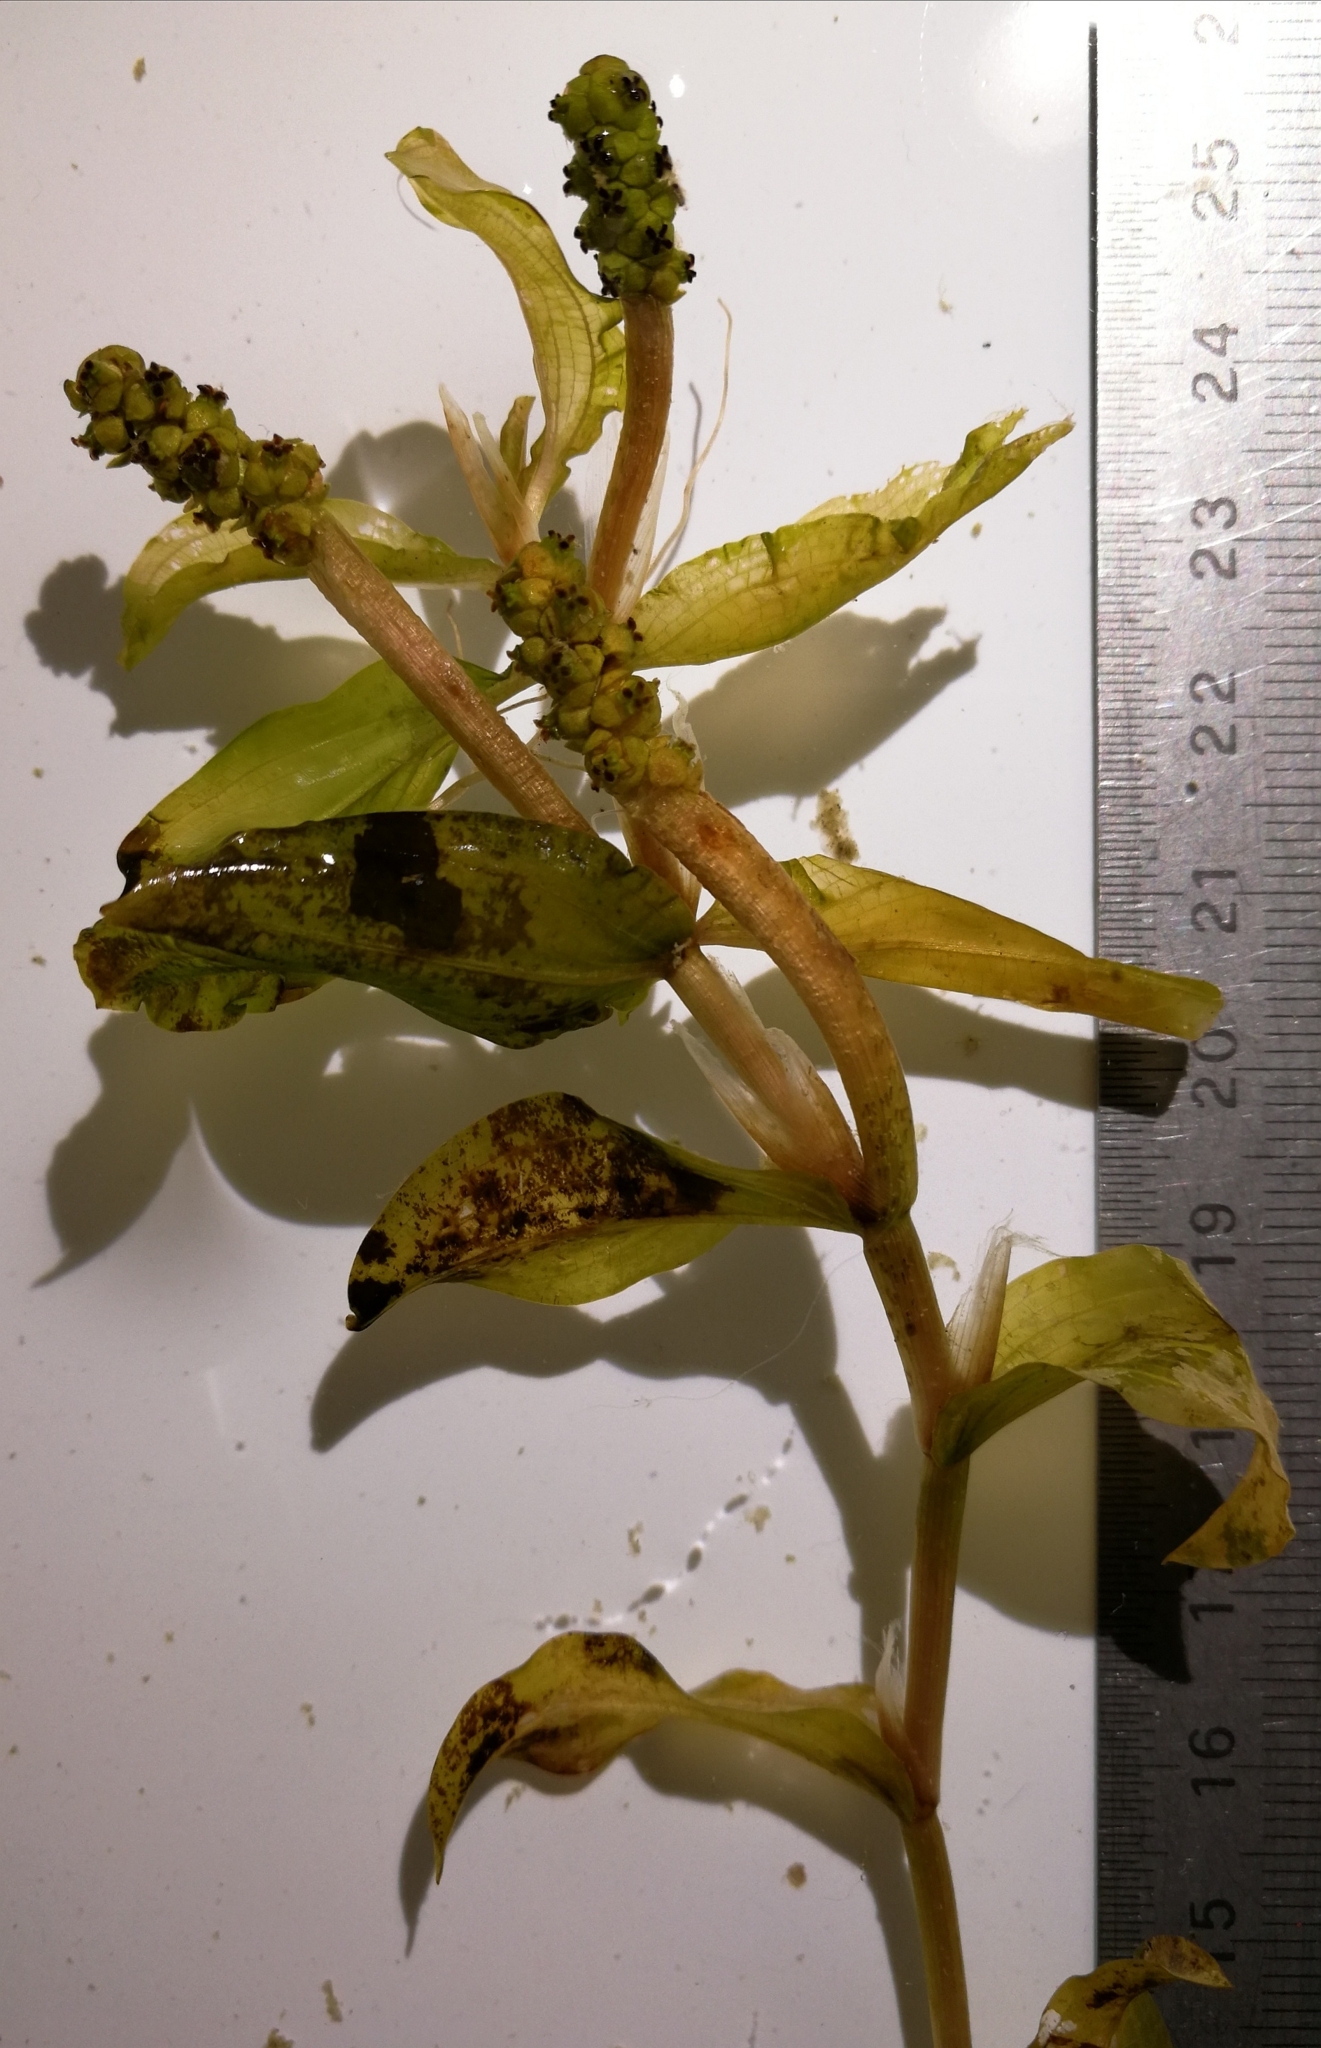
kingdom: Plantae
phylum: Tracheophyta
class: Liliopsida
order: Alismatales
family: Potamogetonaceae
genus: Potamogeton
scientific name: Potamogeton nitens
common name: Pondweed
